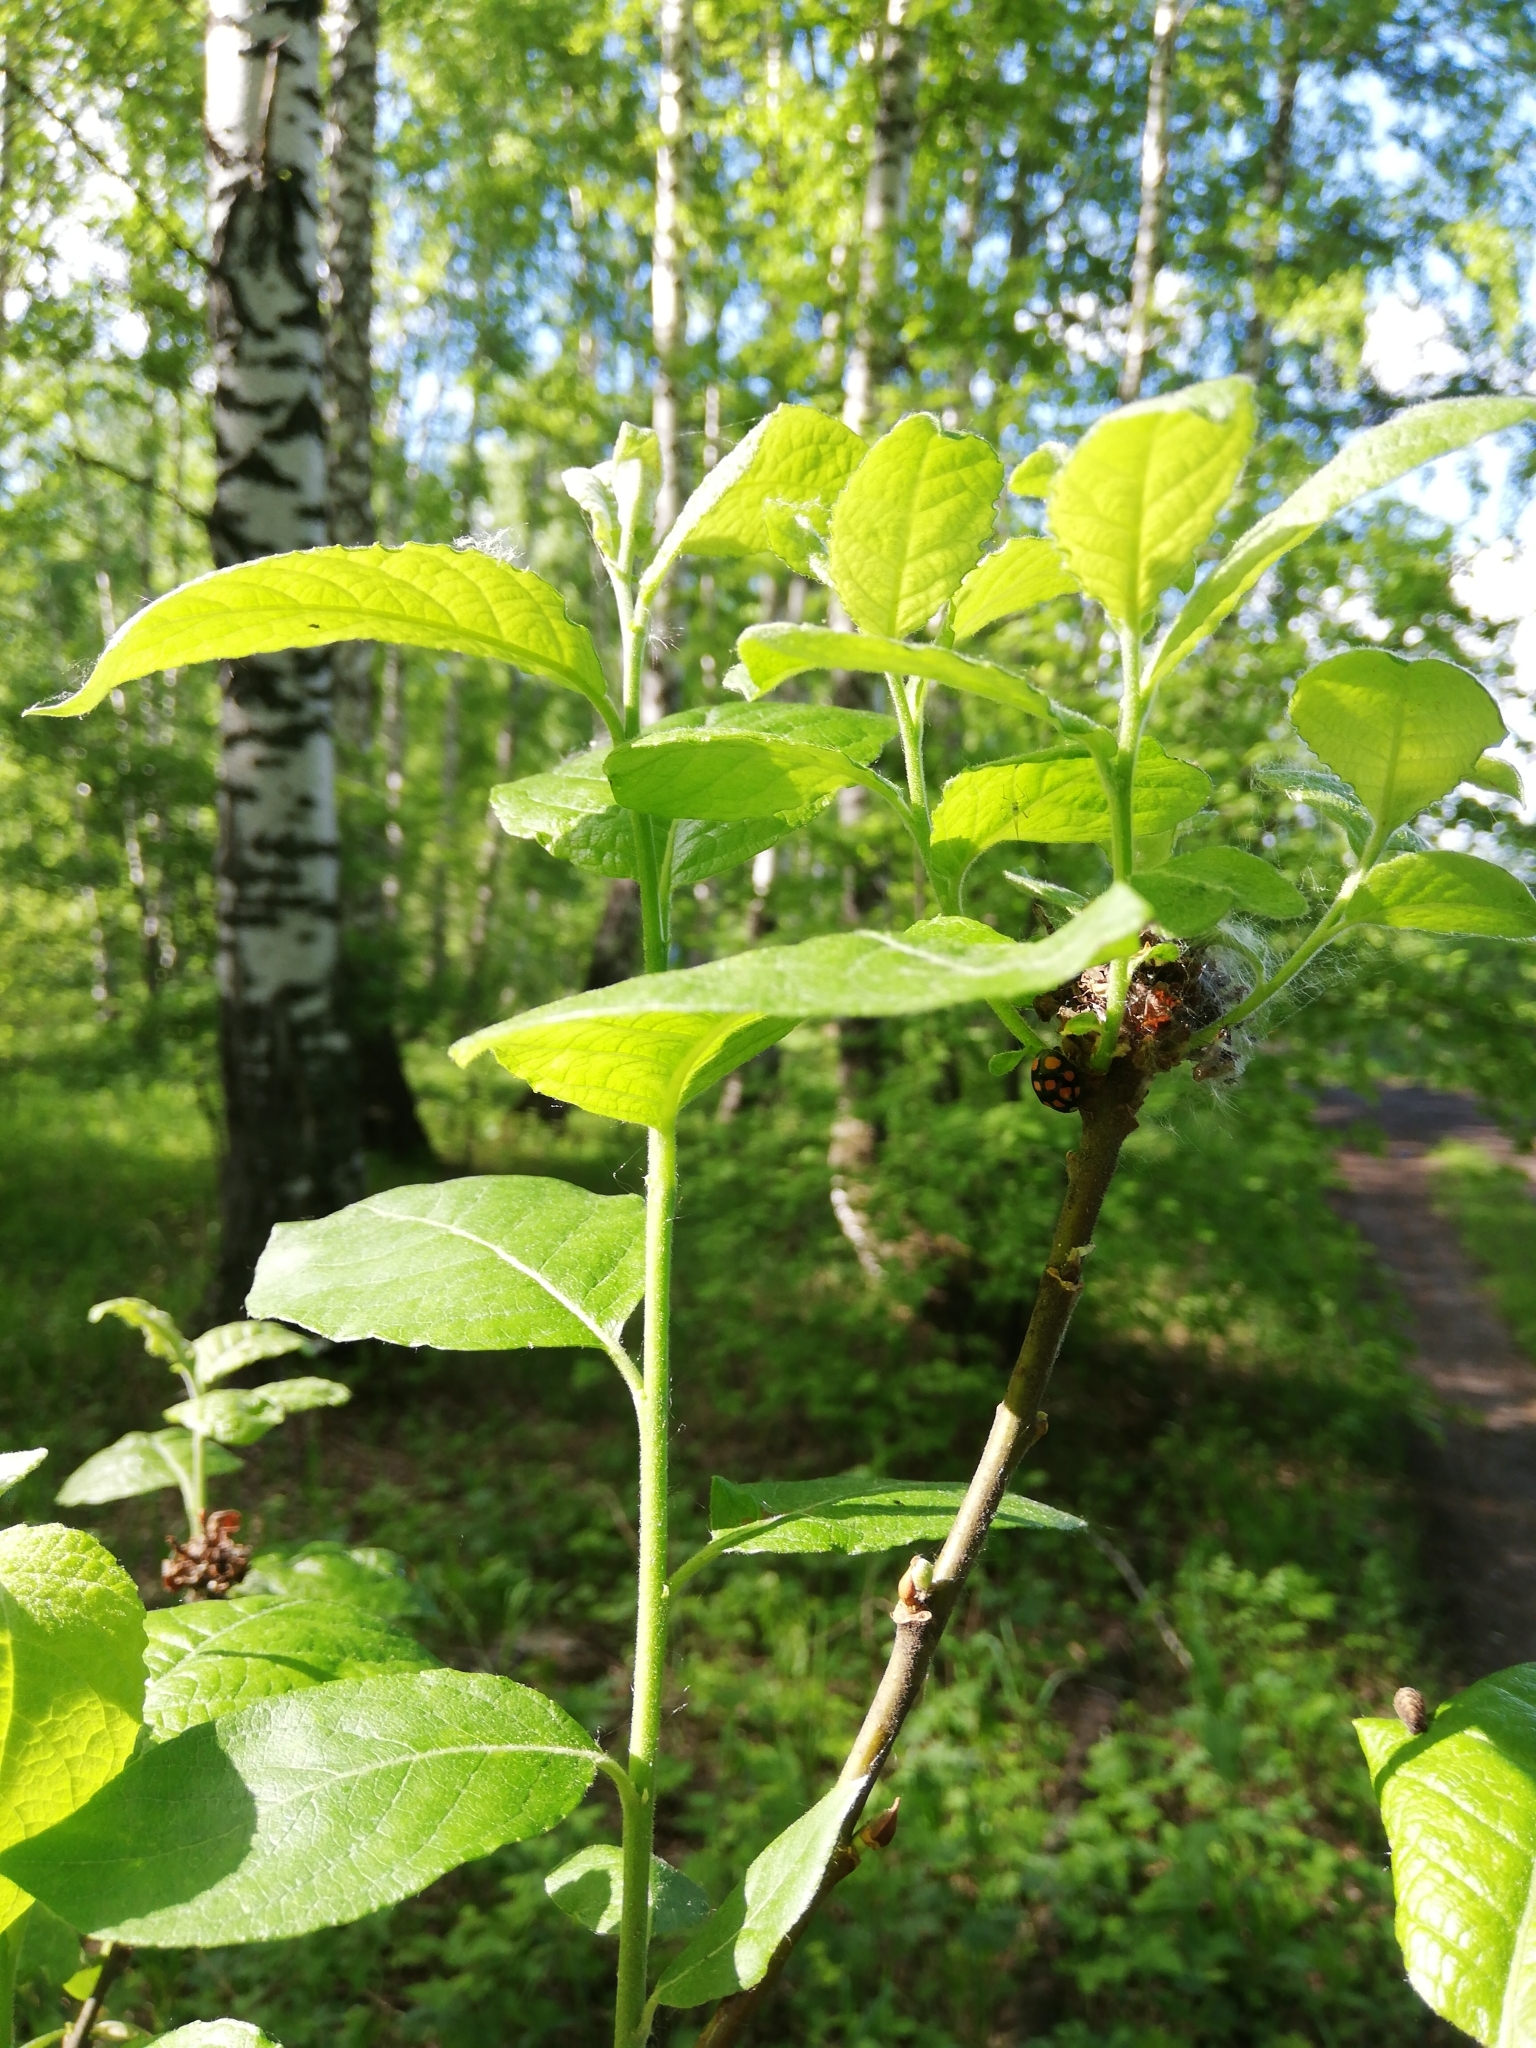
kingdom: Plantae
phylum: Tracheophyta
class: Magnoliopsida
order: Malpighiales
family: Salicaceae
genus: Salix
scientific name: Salix caprea
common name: Goat willow
